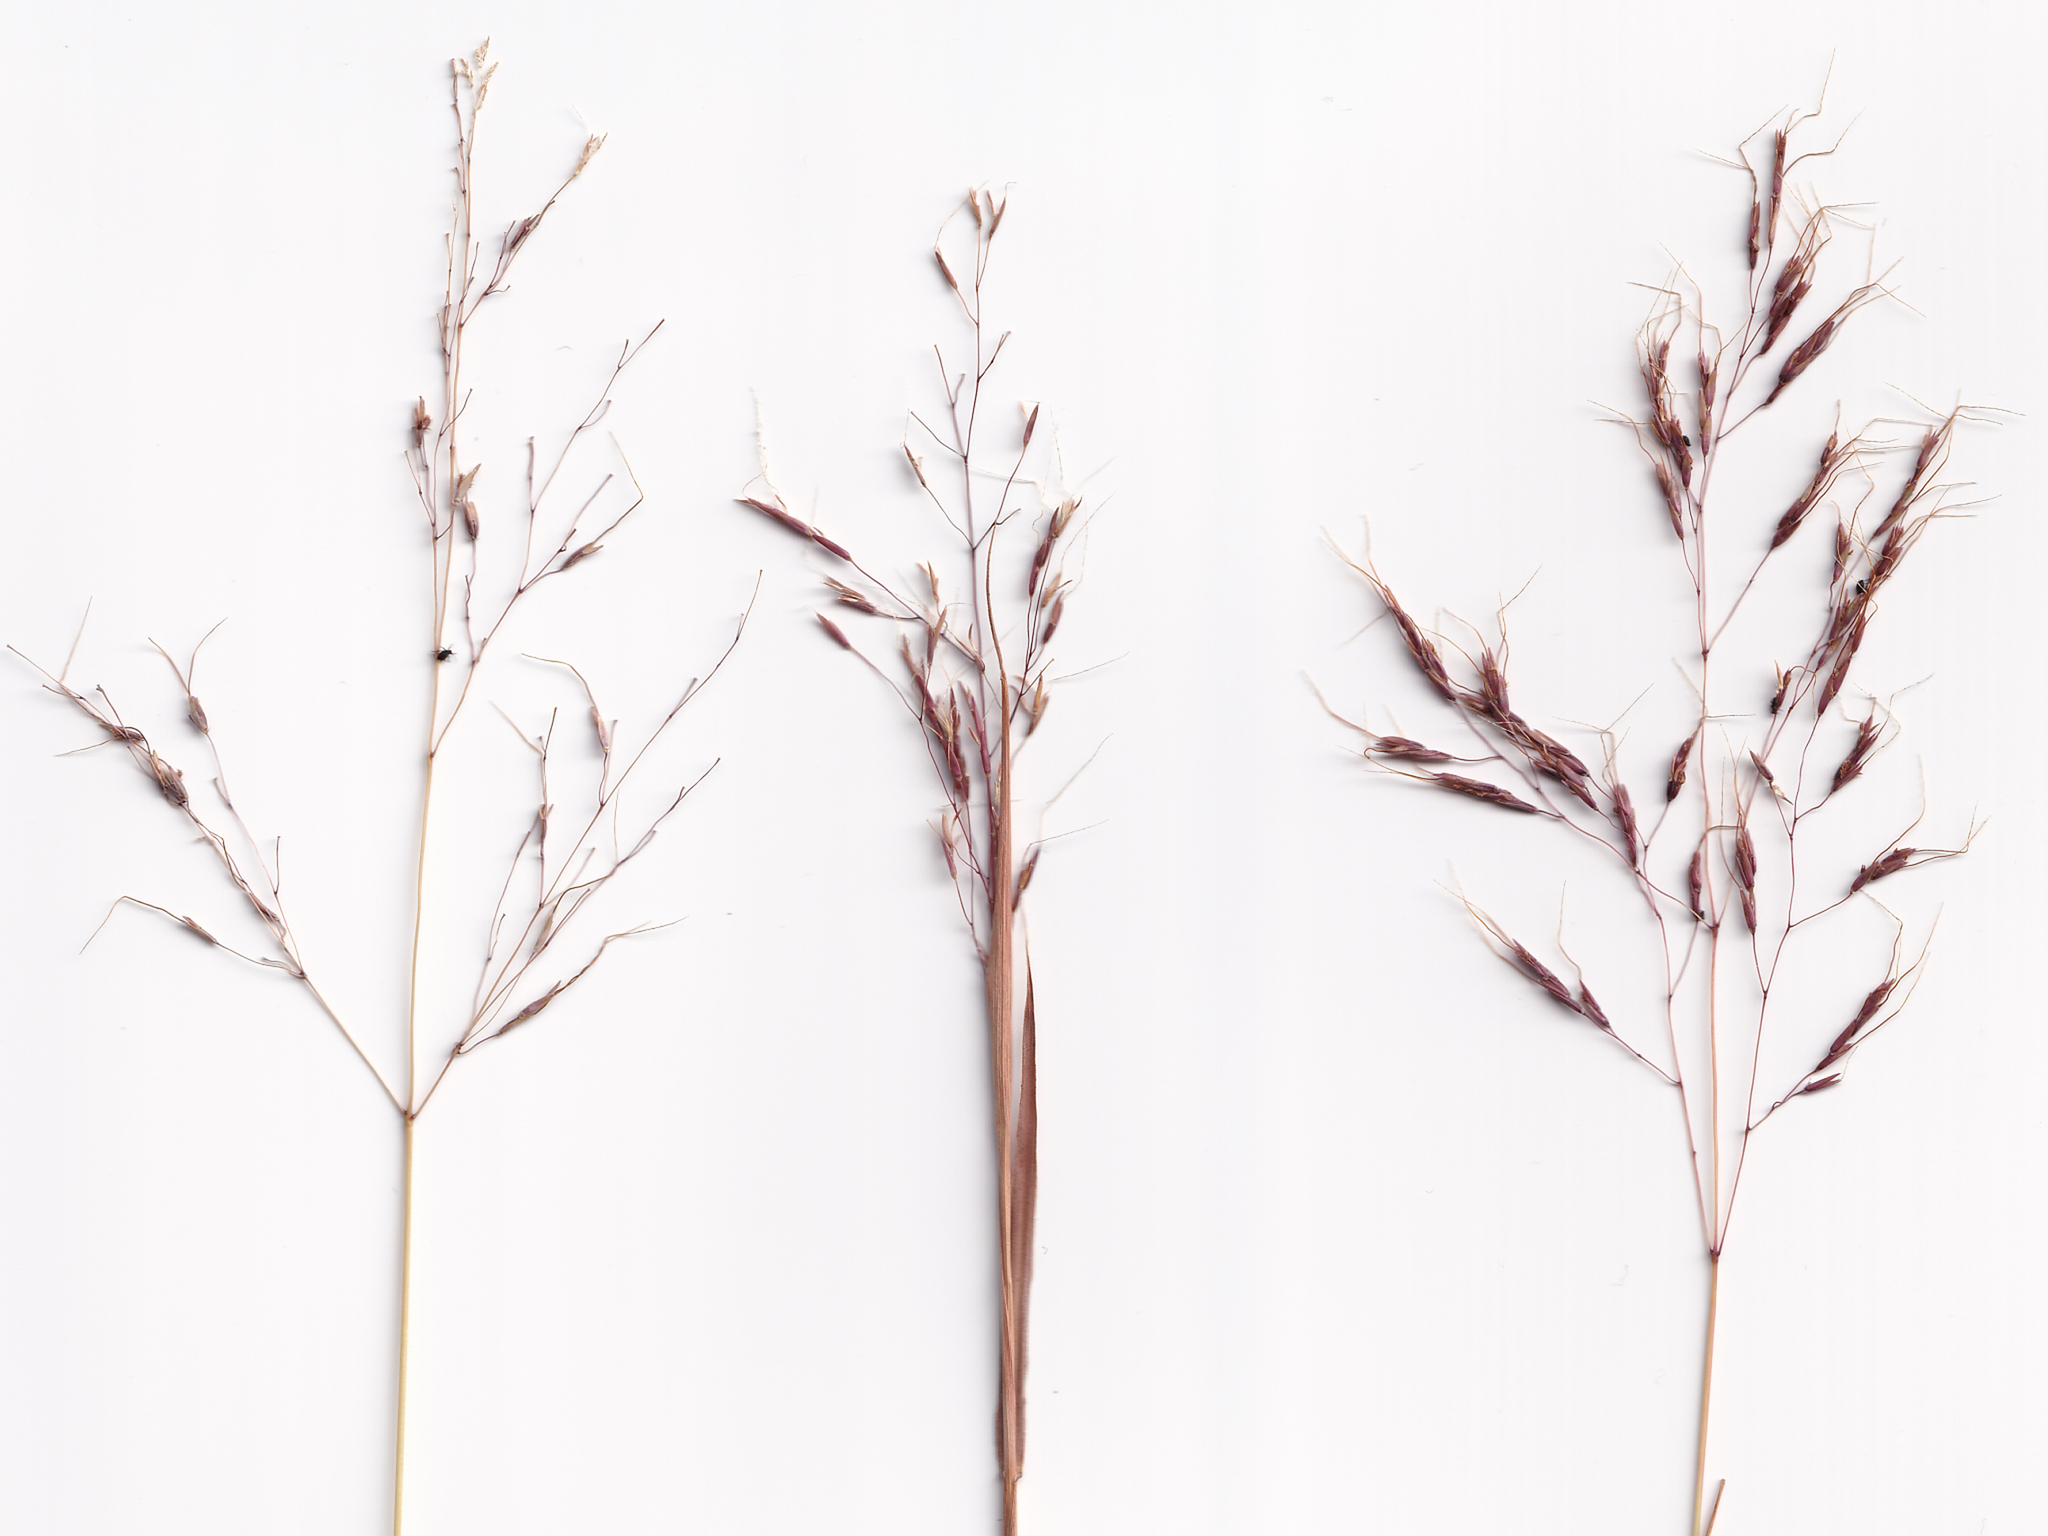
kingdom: Plantae
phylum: Tracheophyta
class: Liliopsida
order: Poales
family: Poaceae
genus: Capillipedium
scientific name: Capillipedium spicigerum
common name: Scented-top grass
